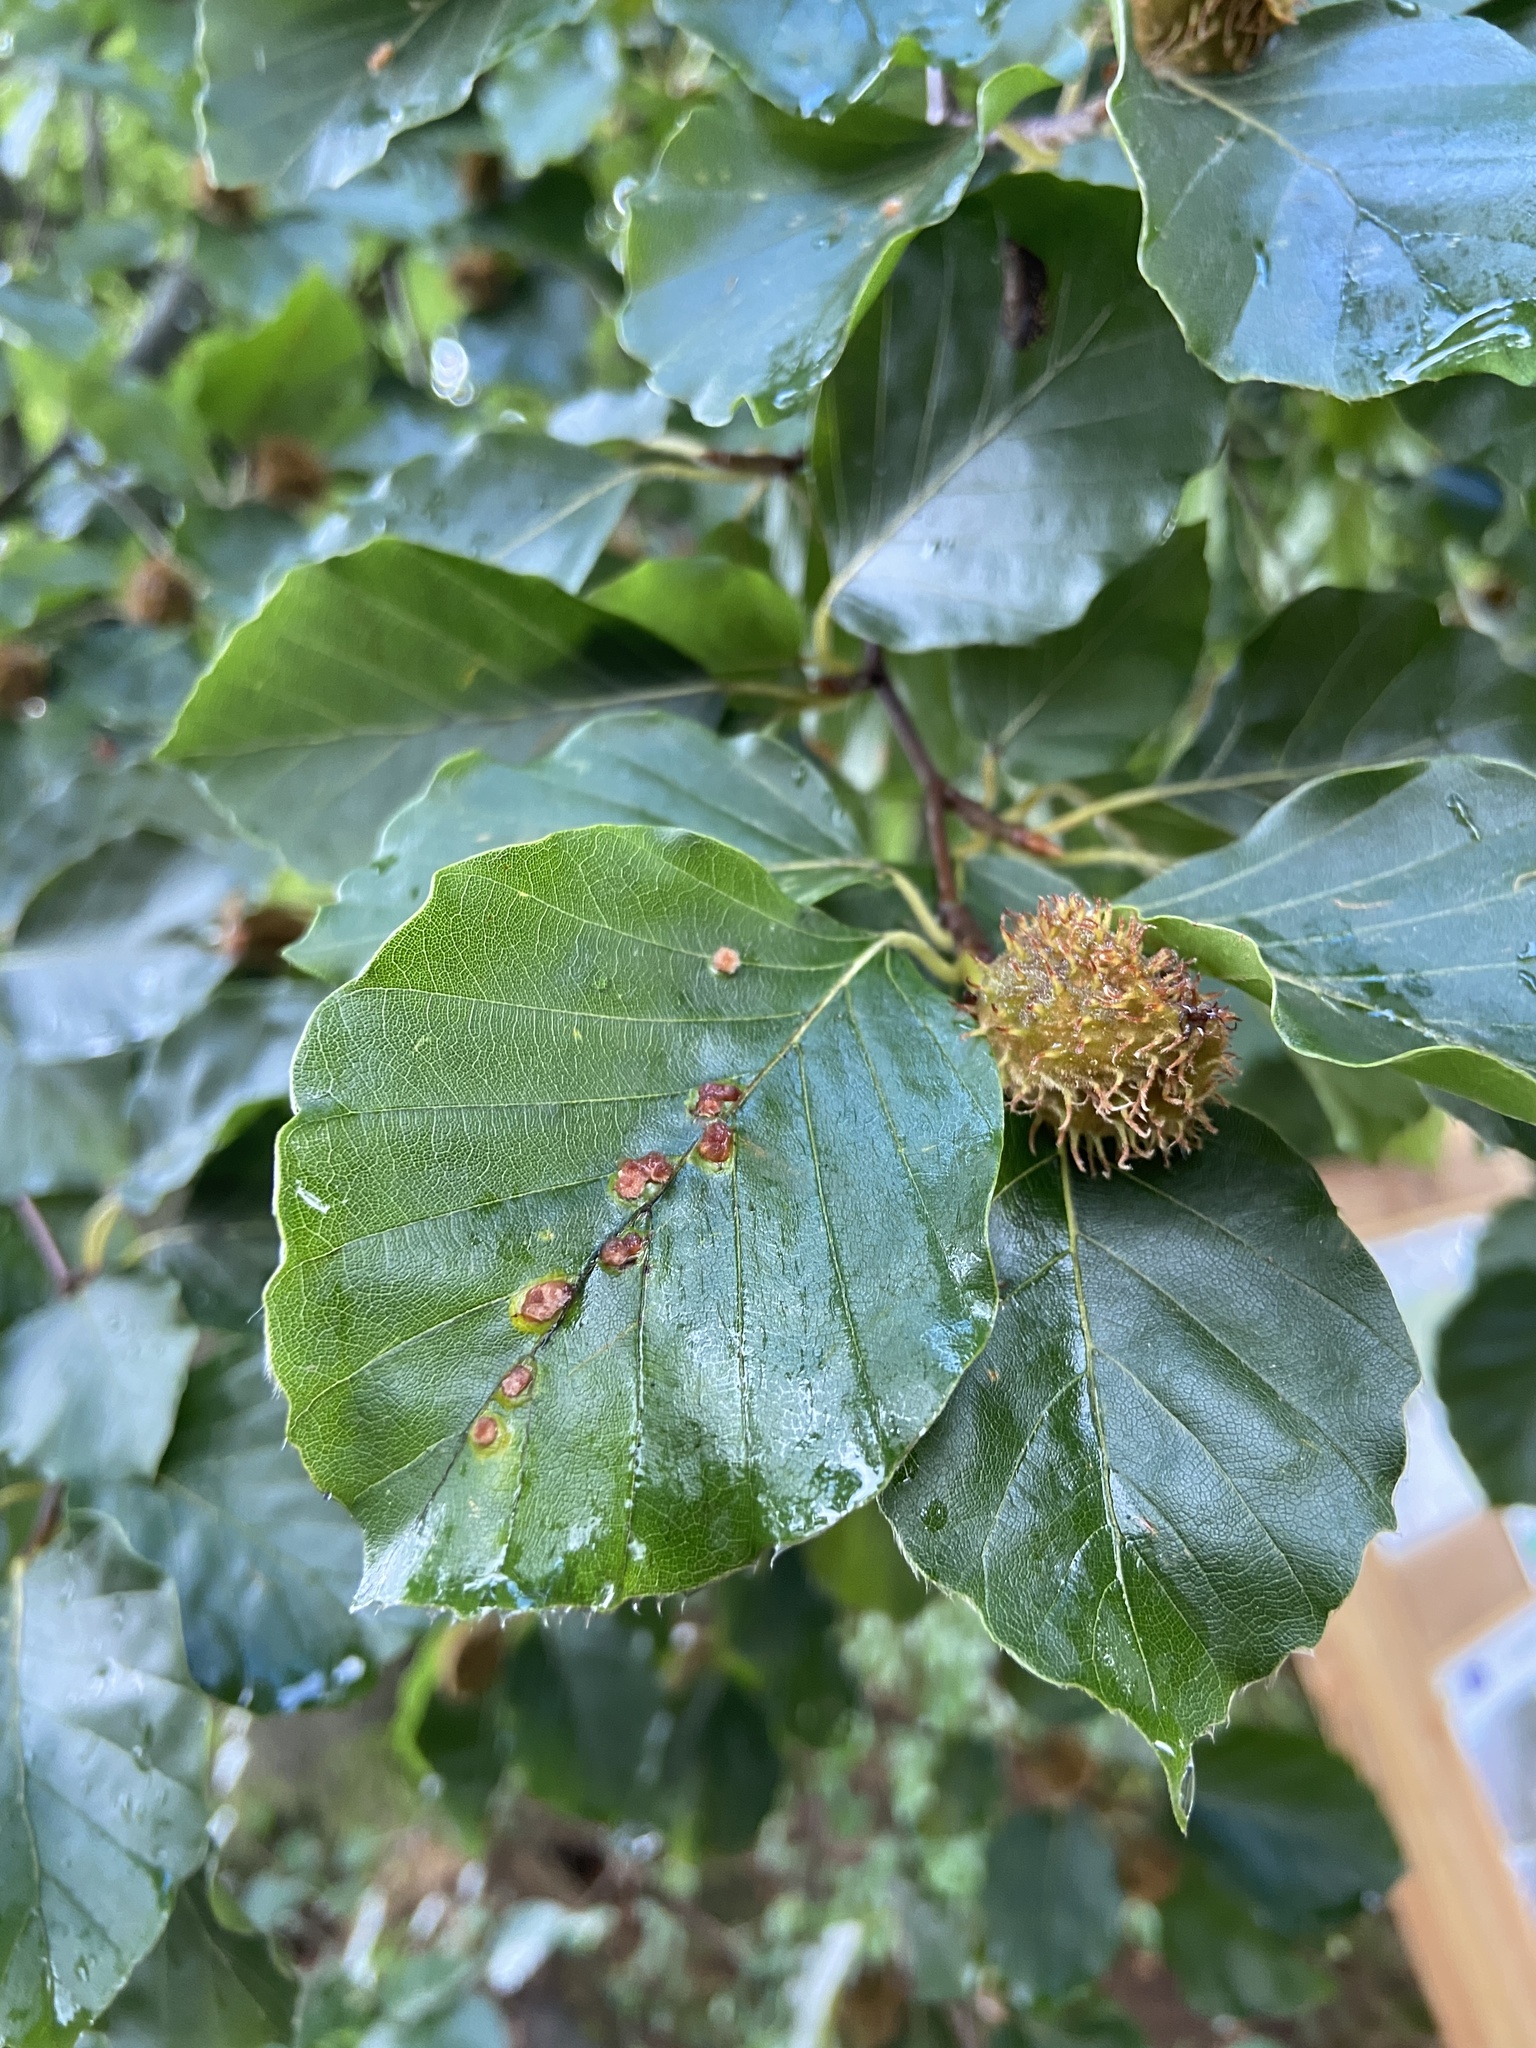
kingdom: Animalia
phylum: Arthropoda
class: Insecta
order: Diptera
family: Cecidomyiidae
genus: Hartigiola
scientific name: Hartigiola annulipes
